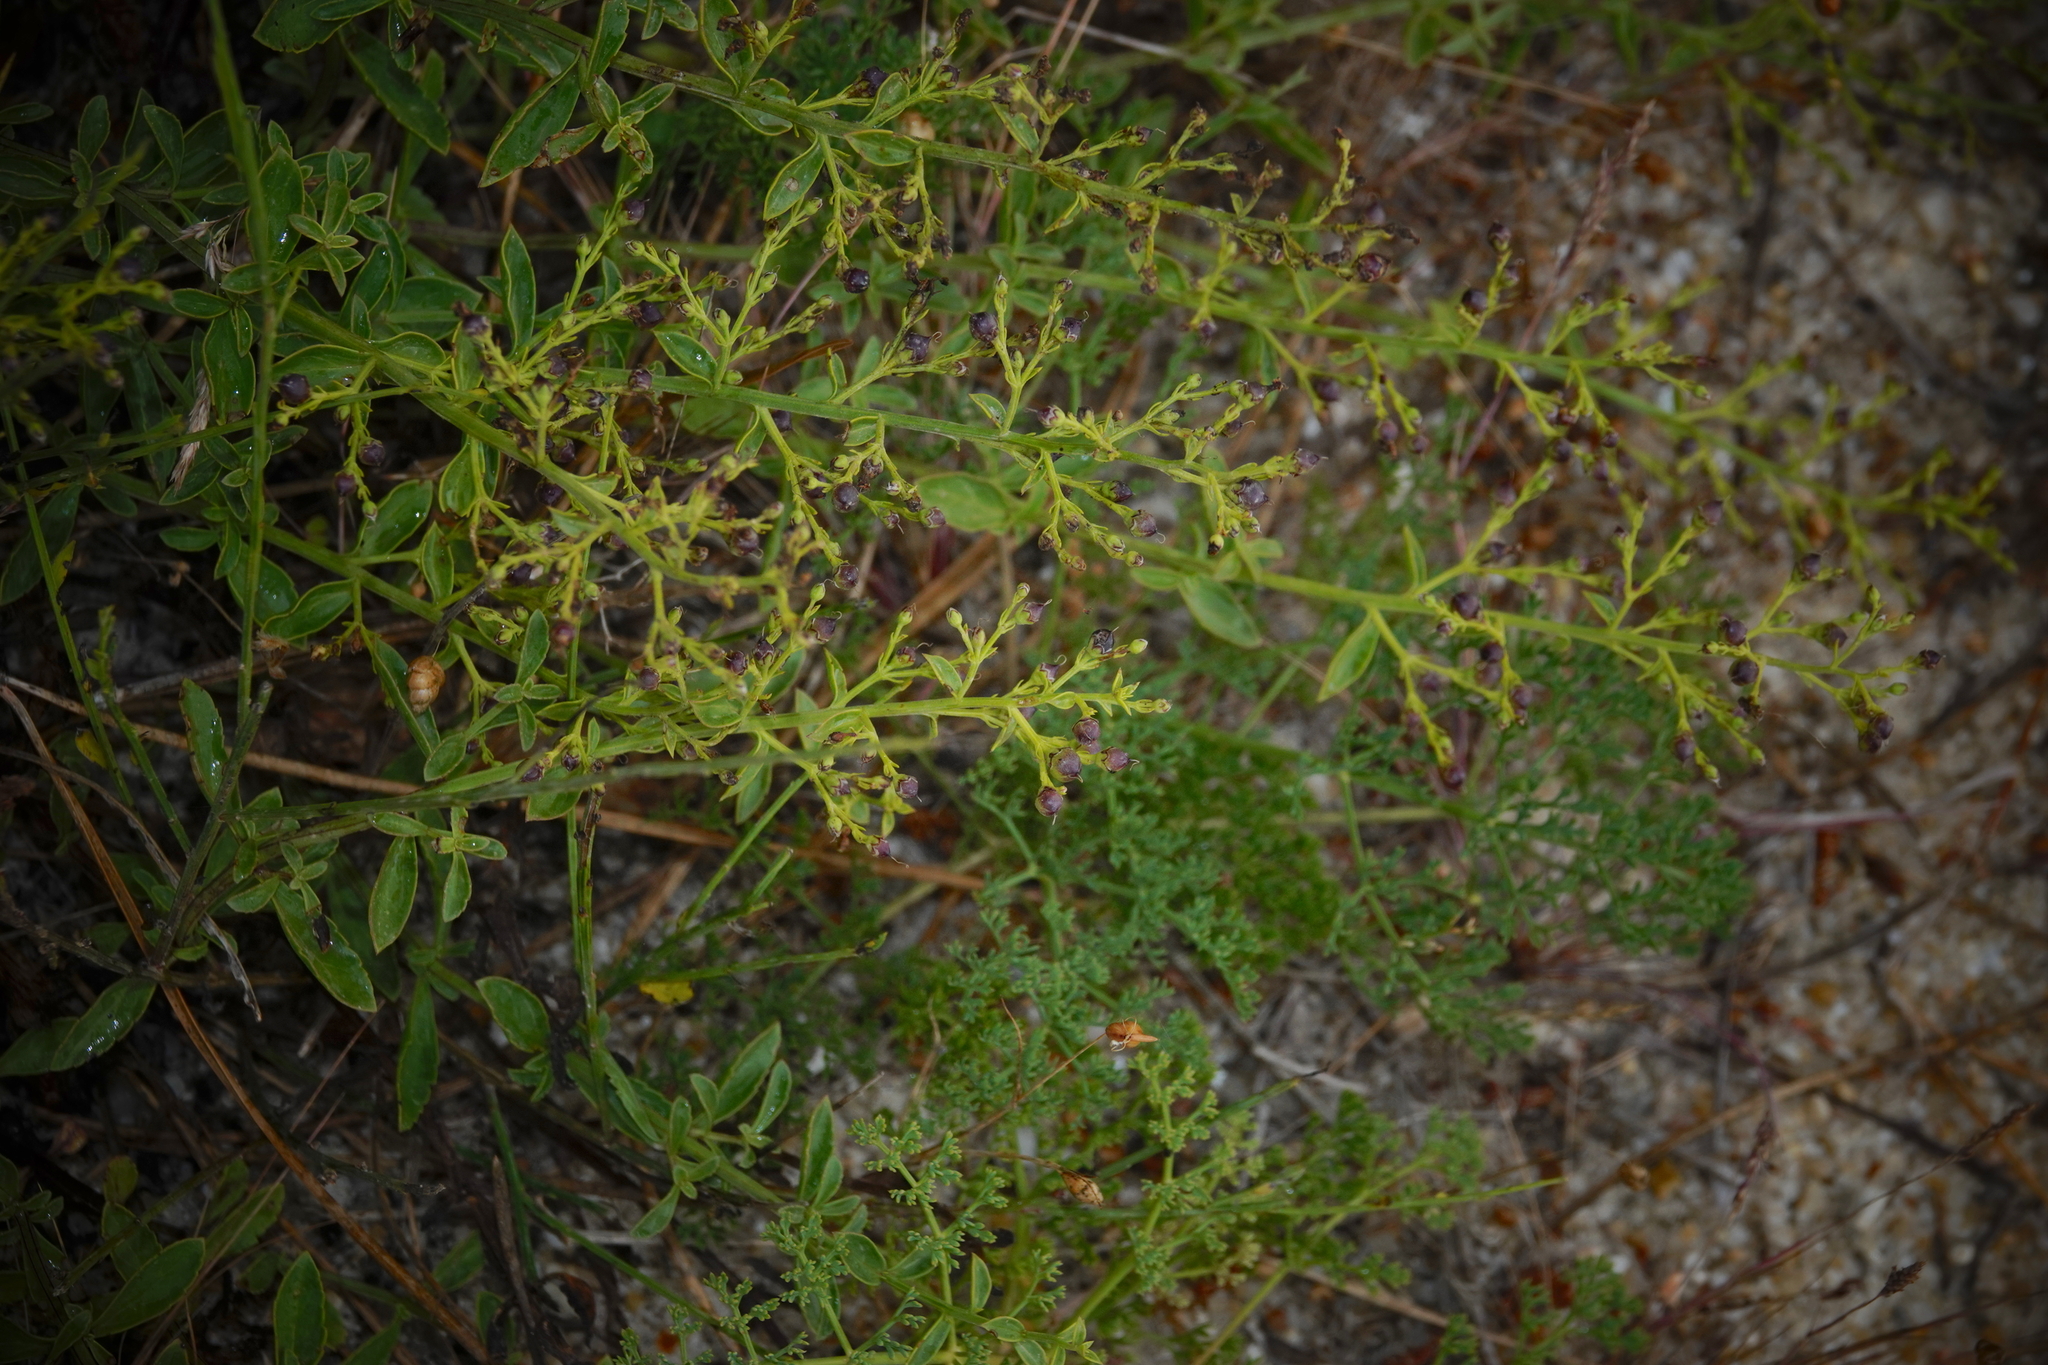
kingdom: Plantae
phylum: Tracheophyta
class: Magnoliopsida
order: Lamiales
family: Scrophulariaceae
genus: Scrophularia
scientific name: Scrophularia frutescens
